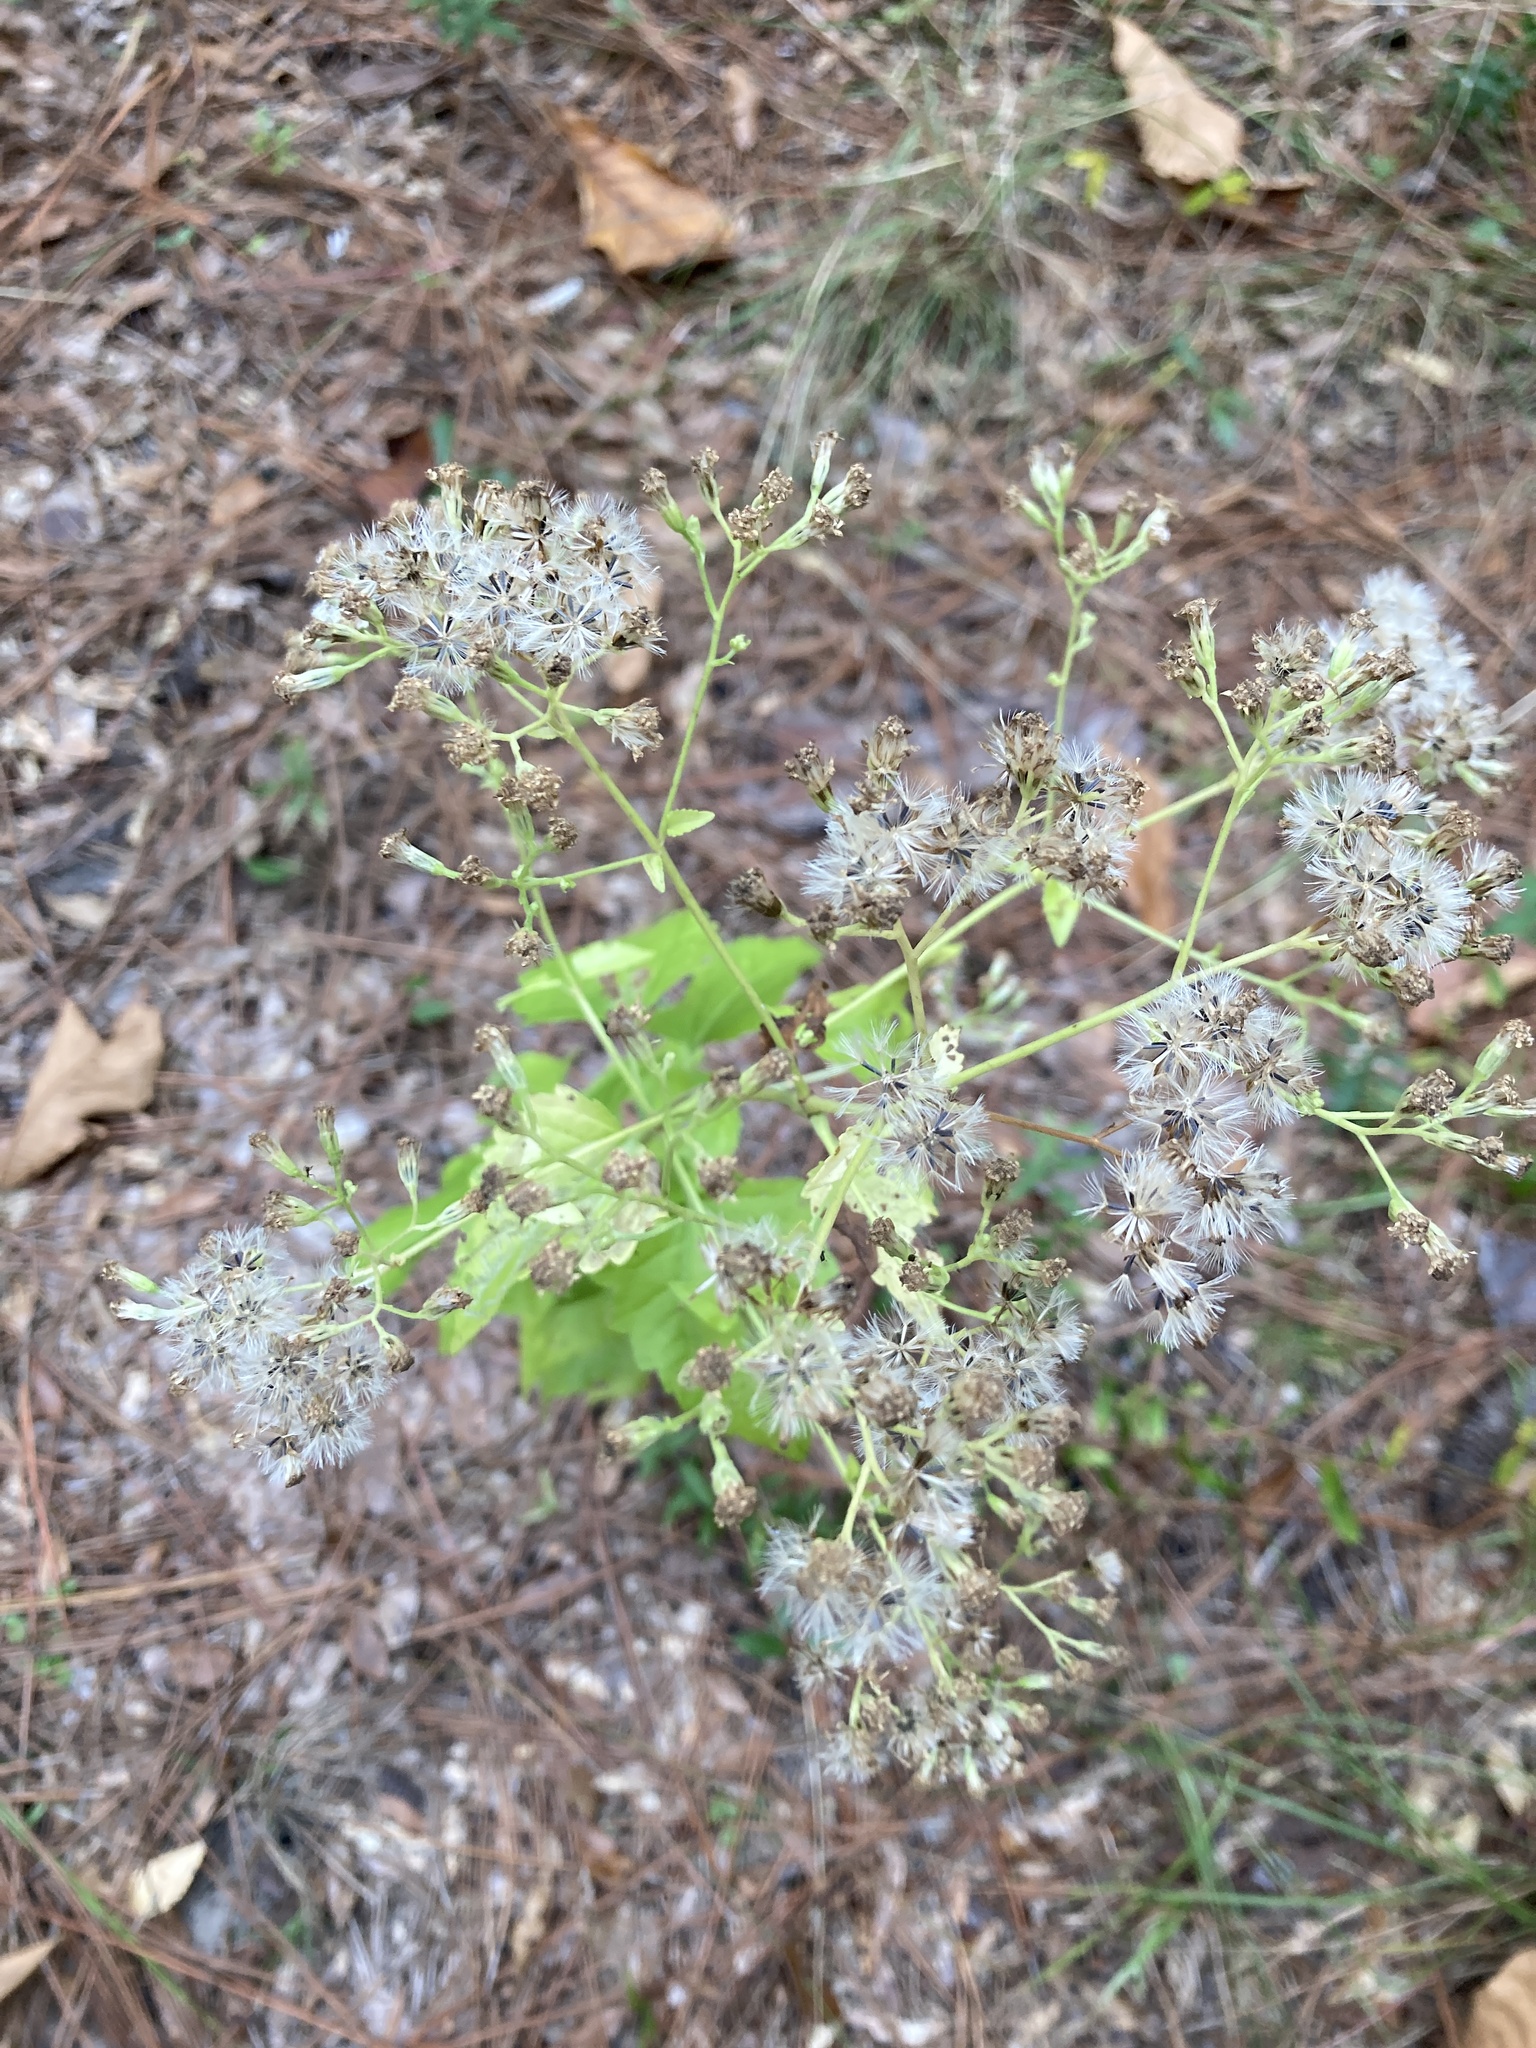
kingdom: Plantae
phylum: Tracheophyta
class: Magnoliopsida
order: Asterales
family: Asteraceae
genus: Ageratina
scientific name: Ageratina jucunda
